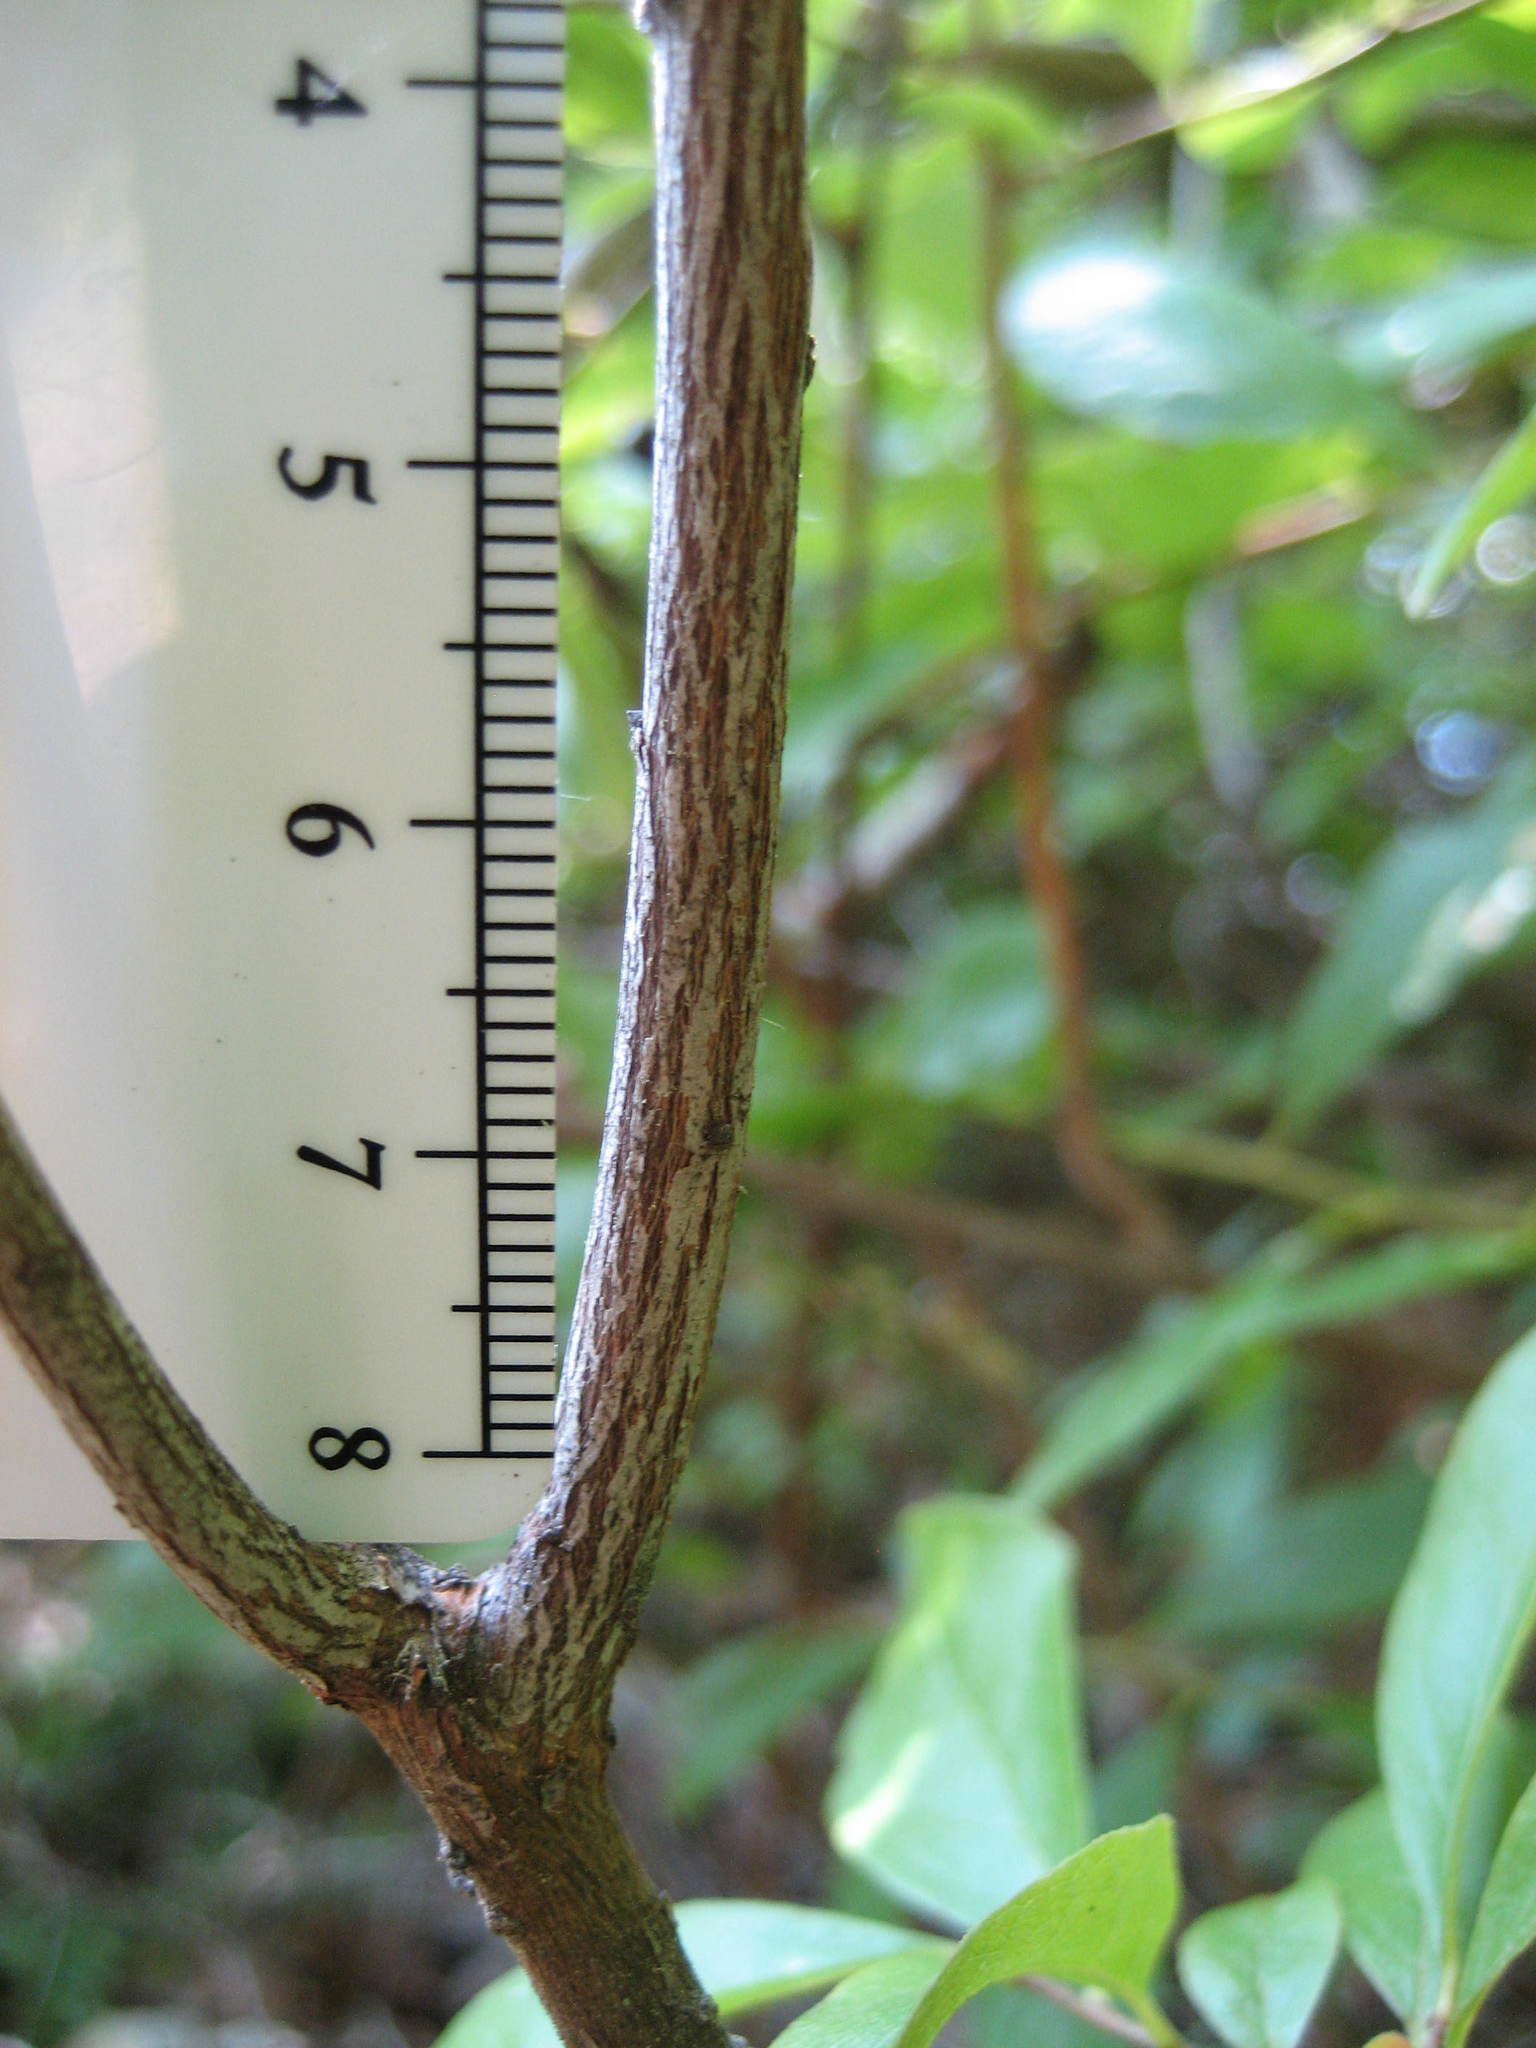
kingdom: Plantae
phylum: Tracheophyta
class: Magnoliopsida
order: Ericales
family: Ericaceae
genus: Gaylussacia
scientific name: Gaylussacia baccata
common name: Black huckleberry
